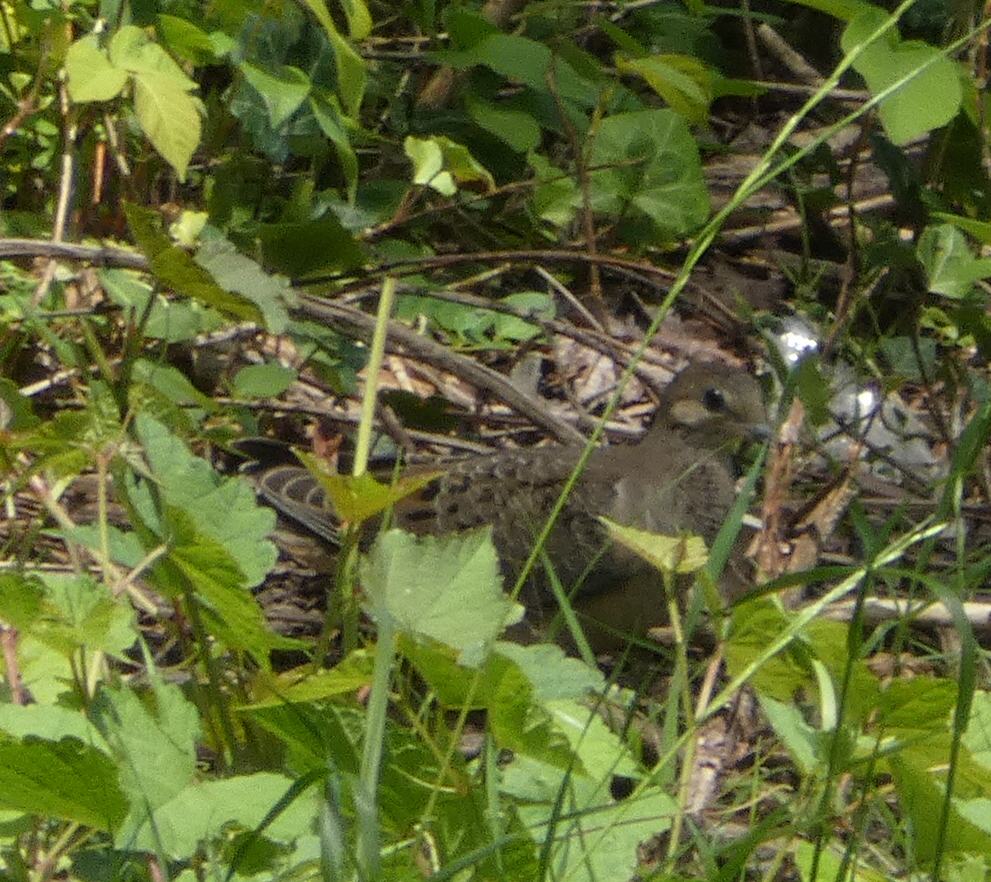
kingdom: Animalia
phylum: Chordata
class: Aves
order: Columbiformes
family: Columbidae
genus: Zenaida
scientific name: Zenaida macroura
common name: Mourning dove
